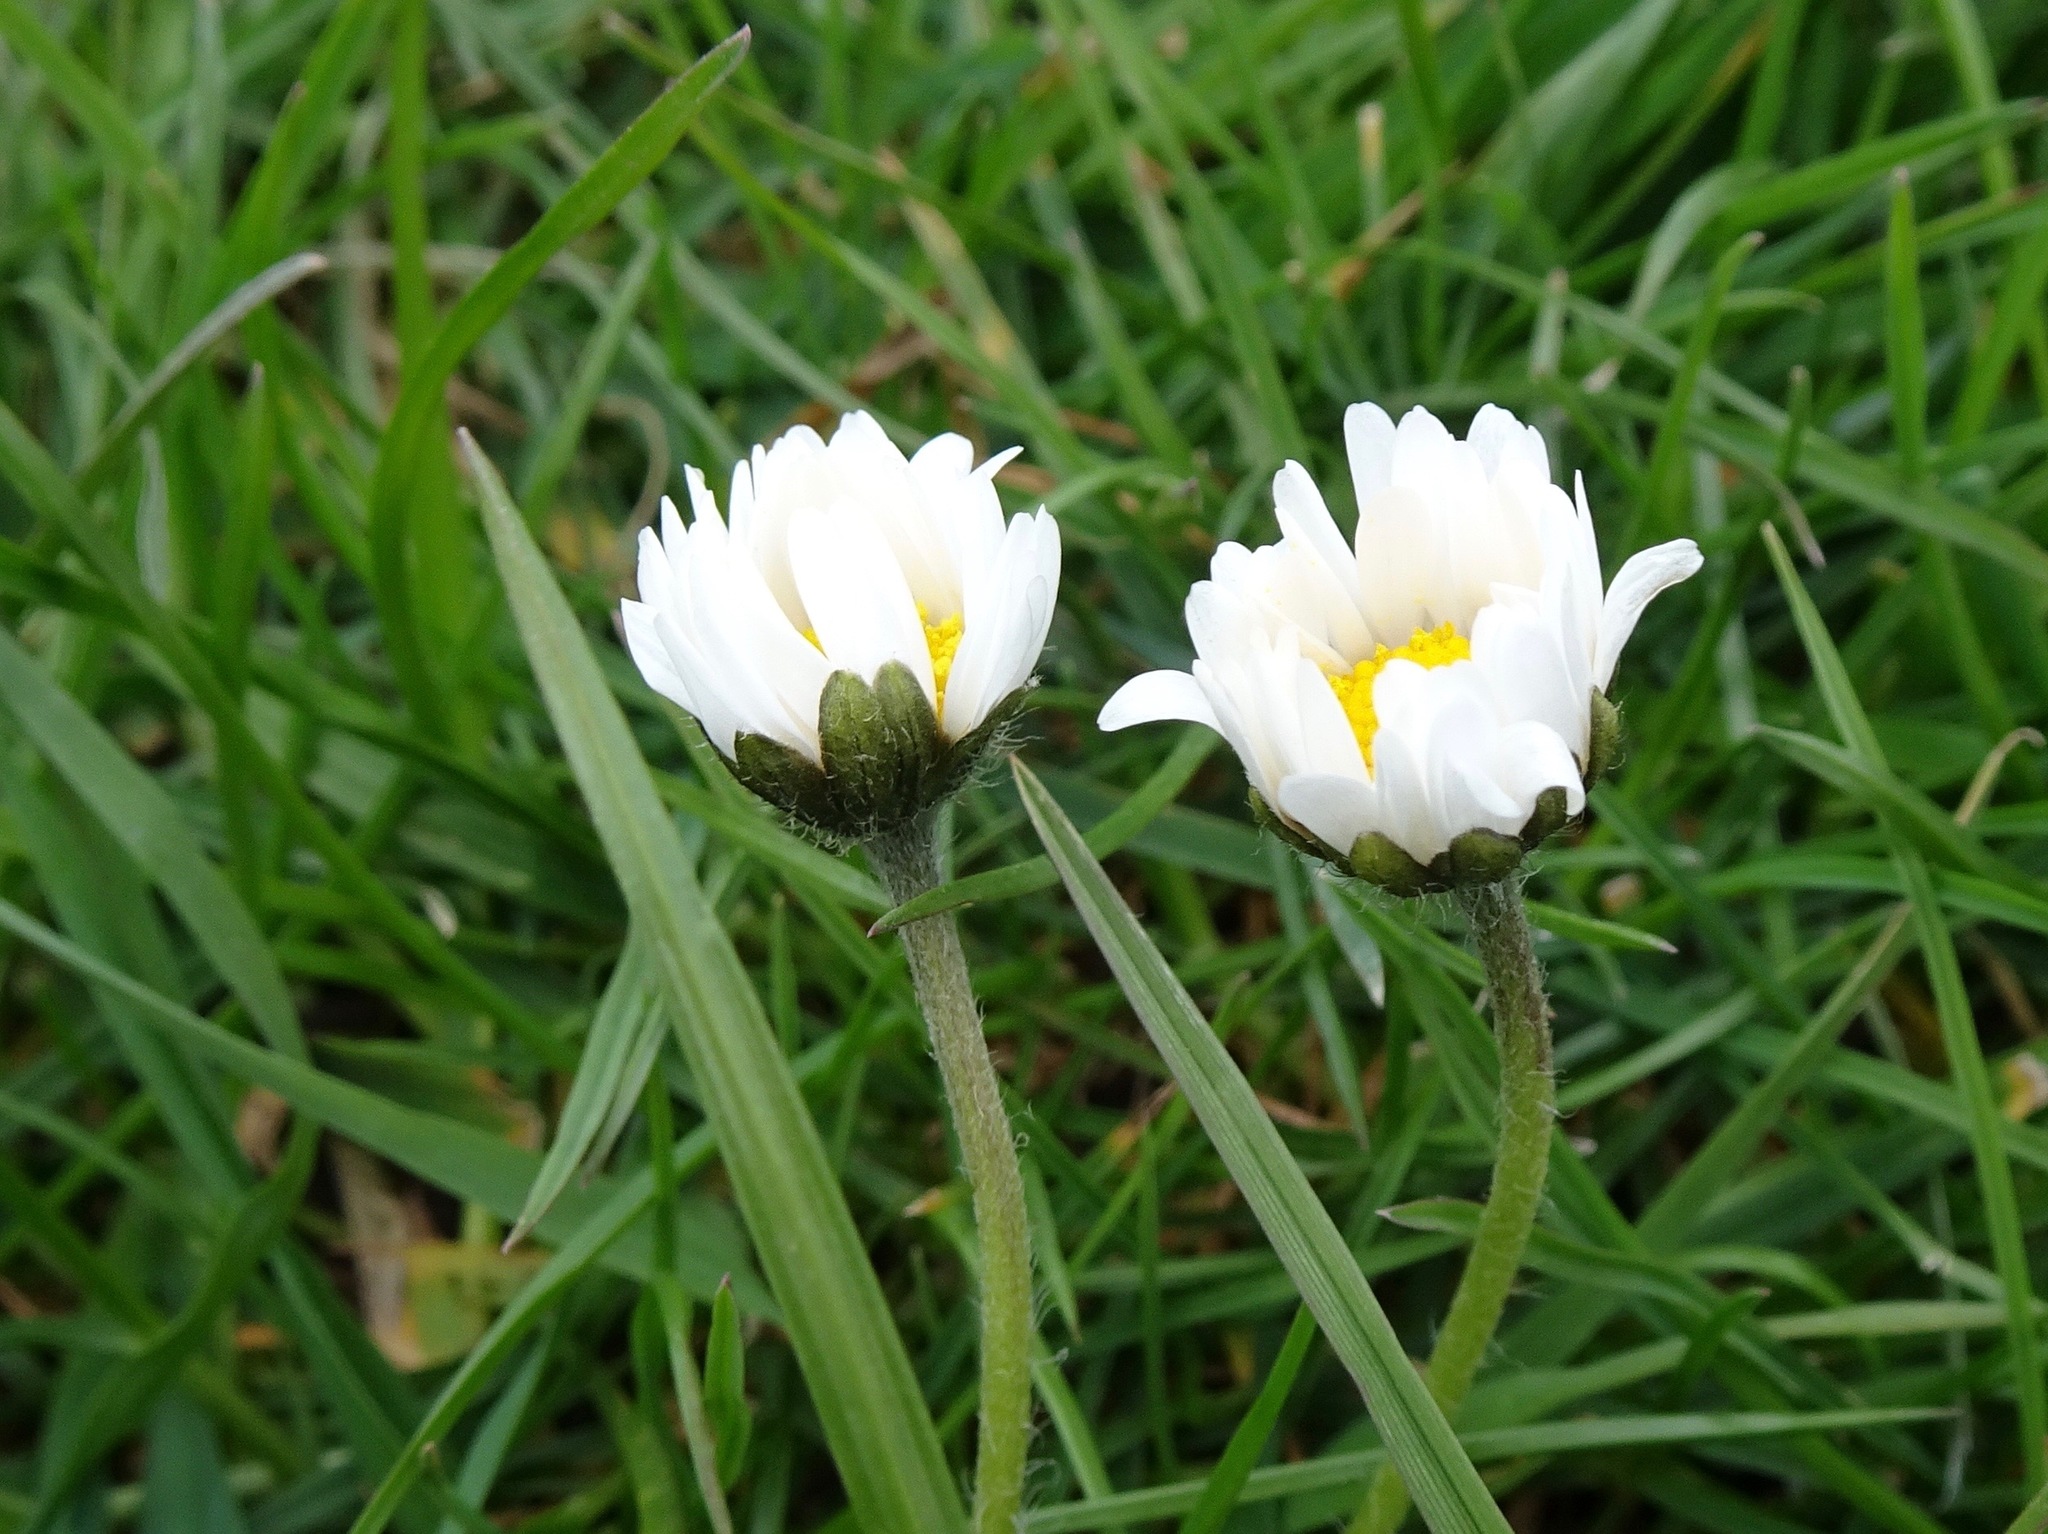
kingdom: Plantae
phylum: Tracheophyta
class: Magnoliopsida
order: Asterales
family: Asteraceae
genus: Bellis
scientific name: Bellis perennis
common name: Lawndaisy
